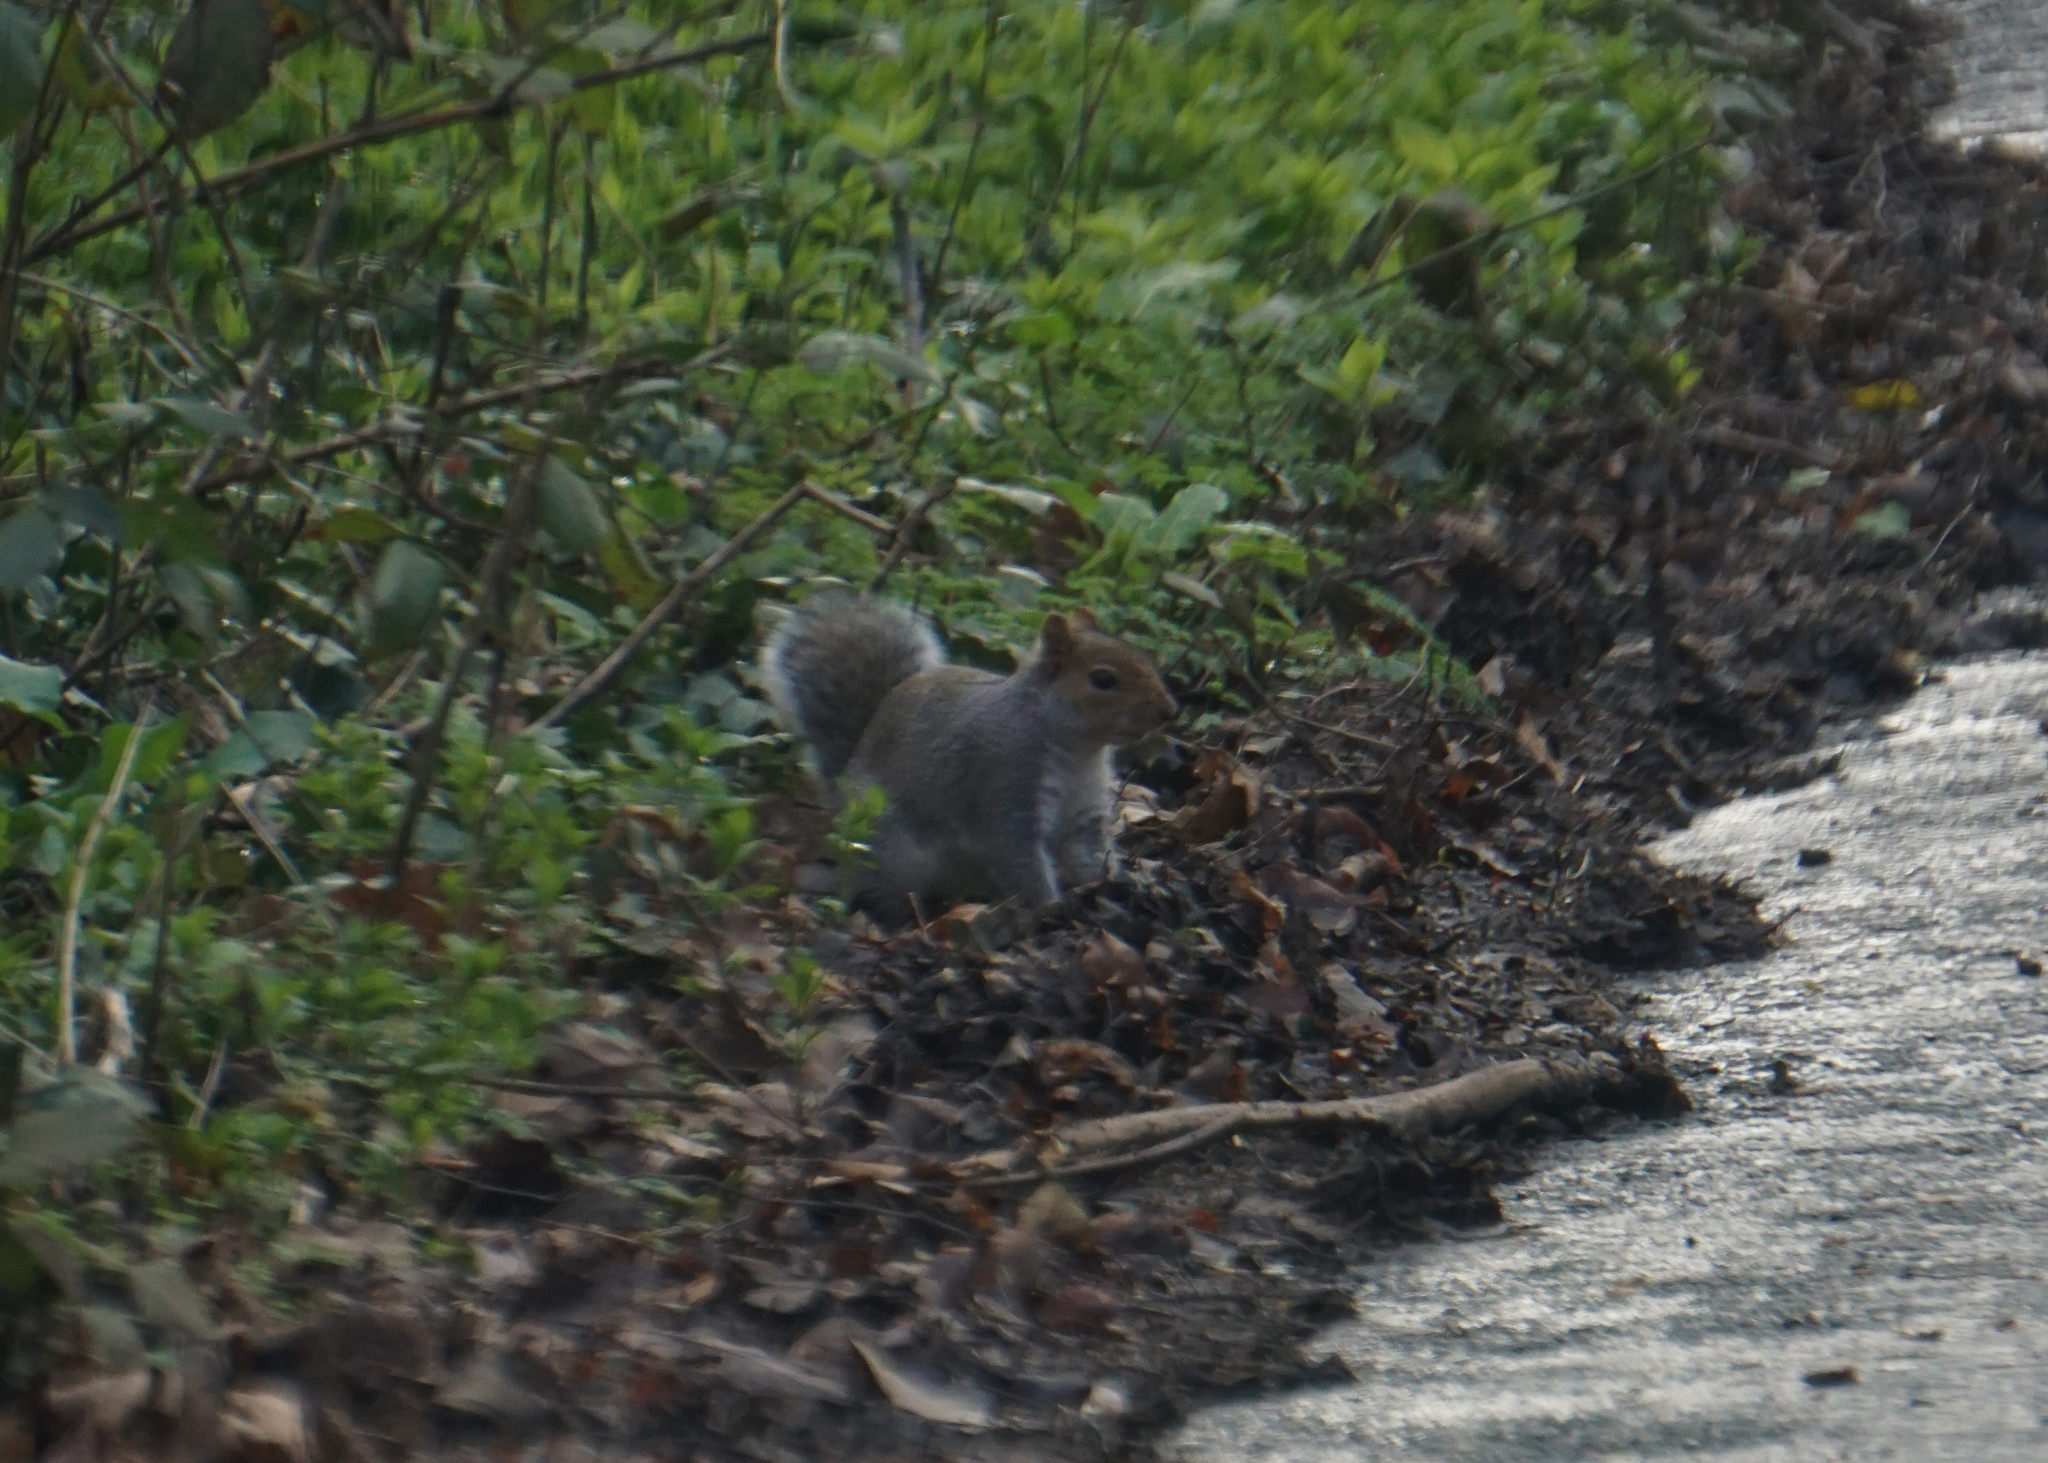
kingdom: Animalia
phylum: Chordata
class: Mammalia
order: Rodentia
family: Sciuridae
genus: Sciurus
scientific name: Sciurus carolinensis
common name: Eastern gray squirrel
